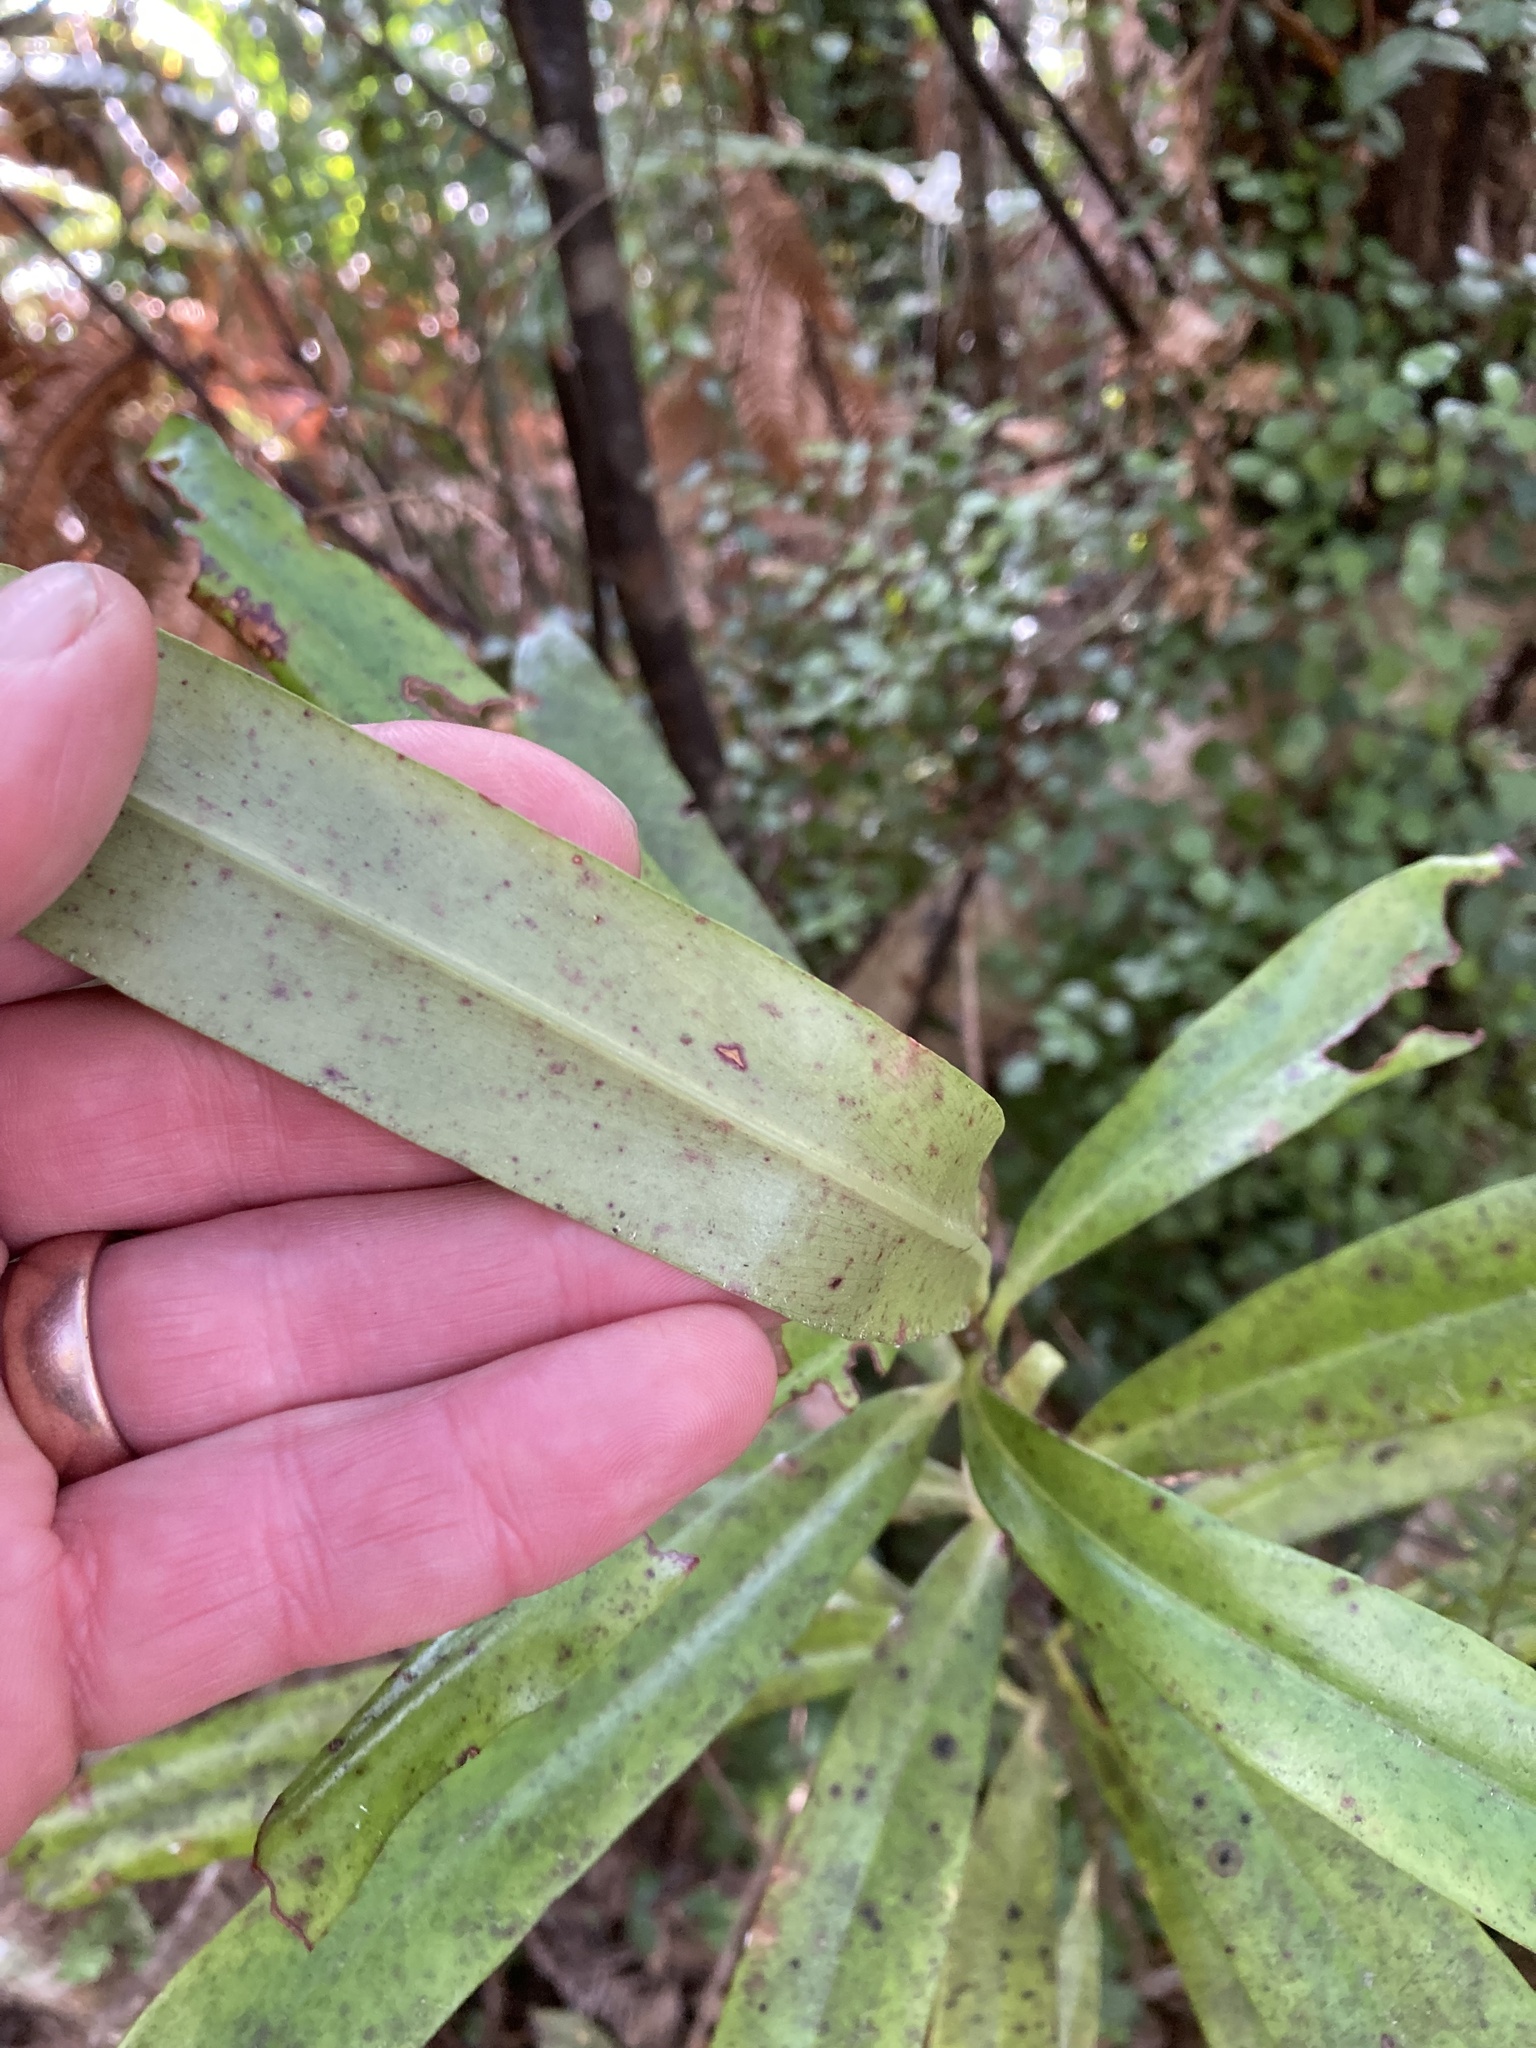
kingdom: Plantae
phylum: Tracheophyta
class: Magnoliopsida
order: Ericales
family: Primulaceae
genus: Myrsine
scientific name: Myrsine salicina
